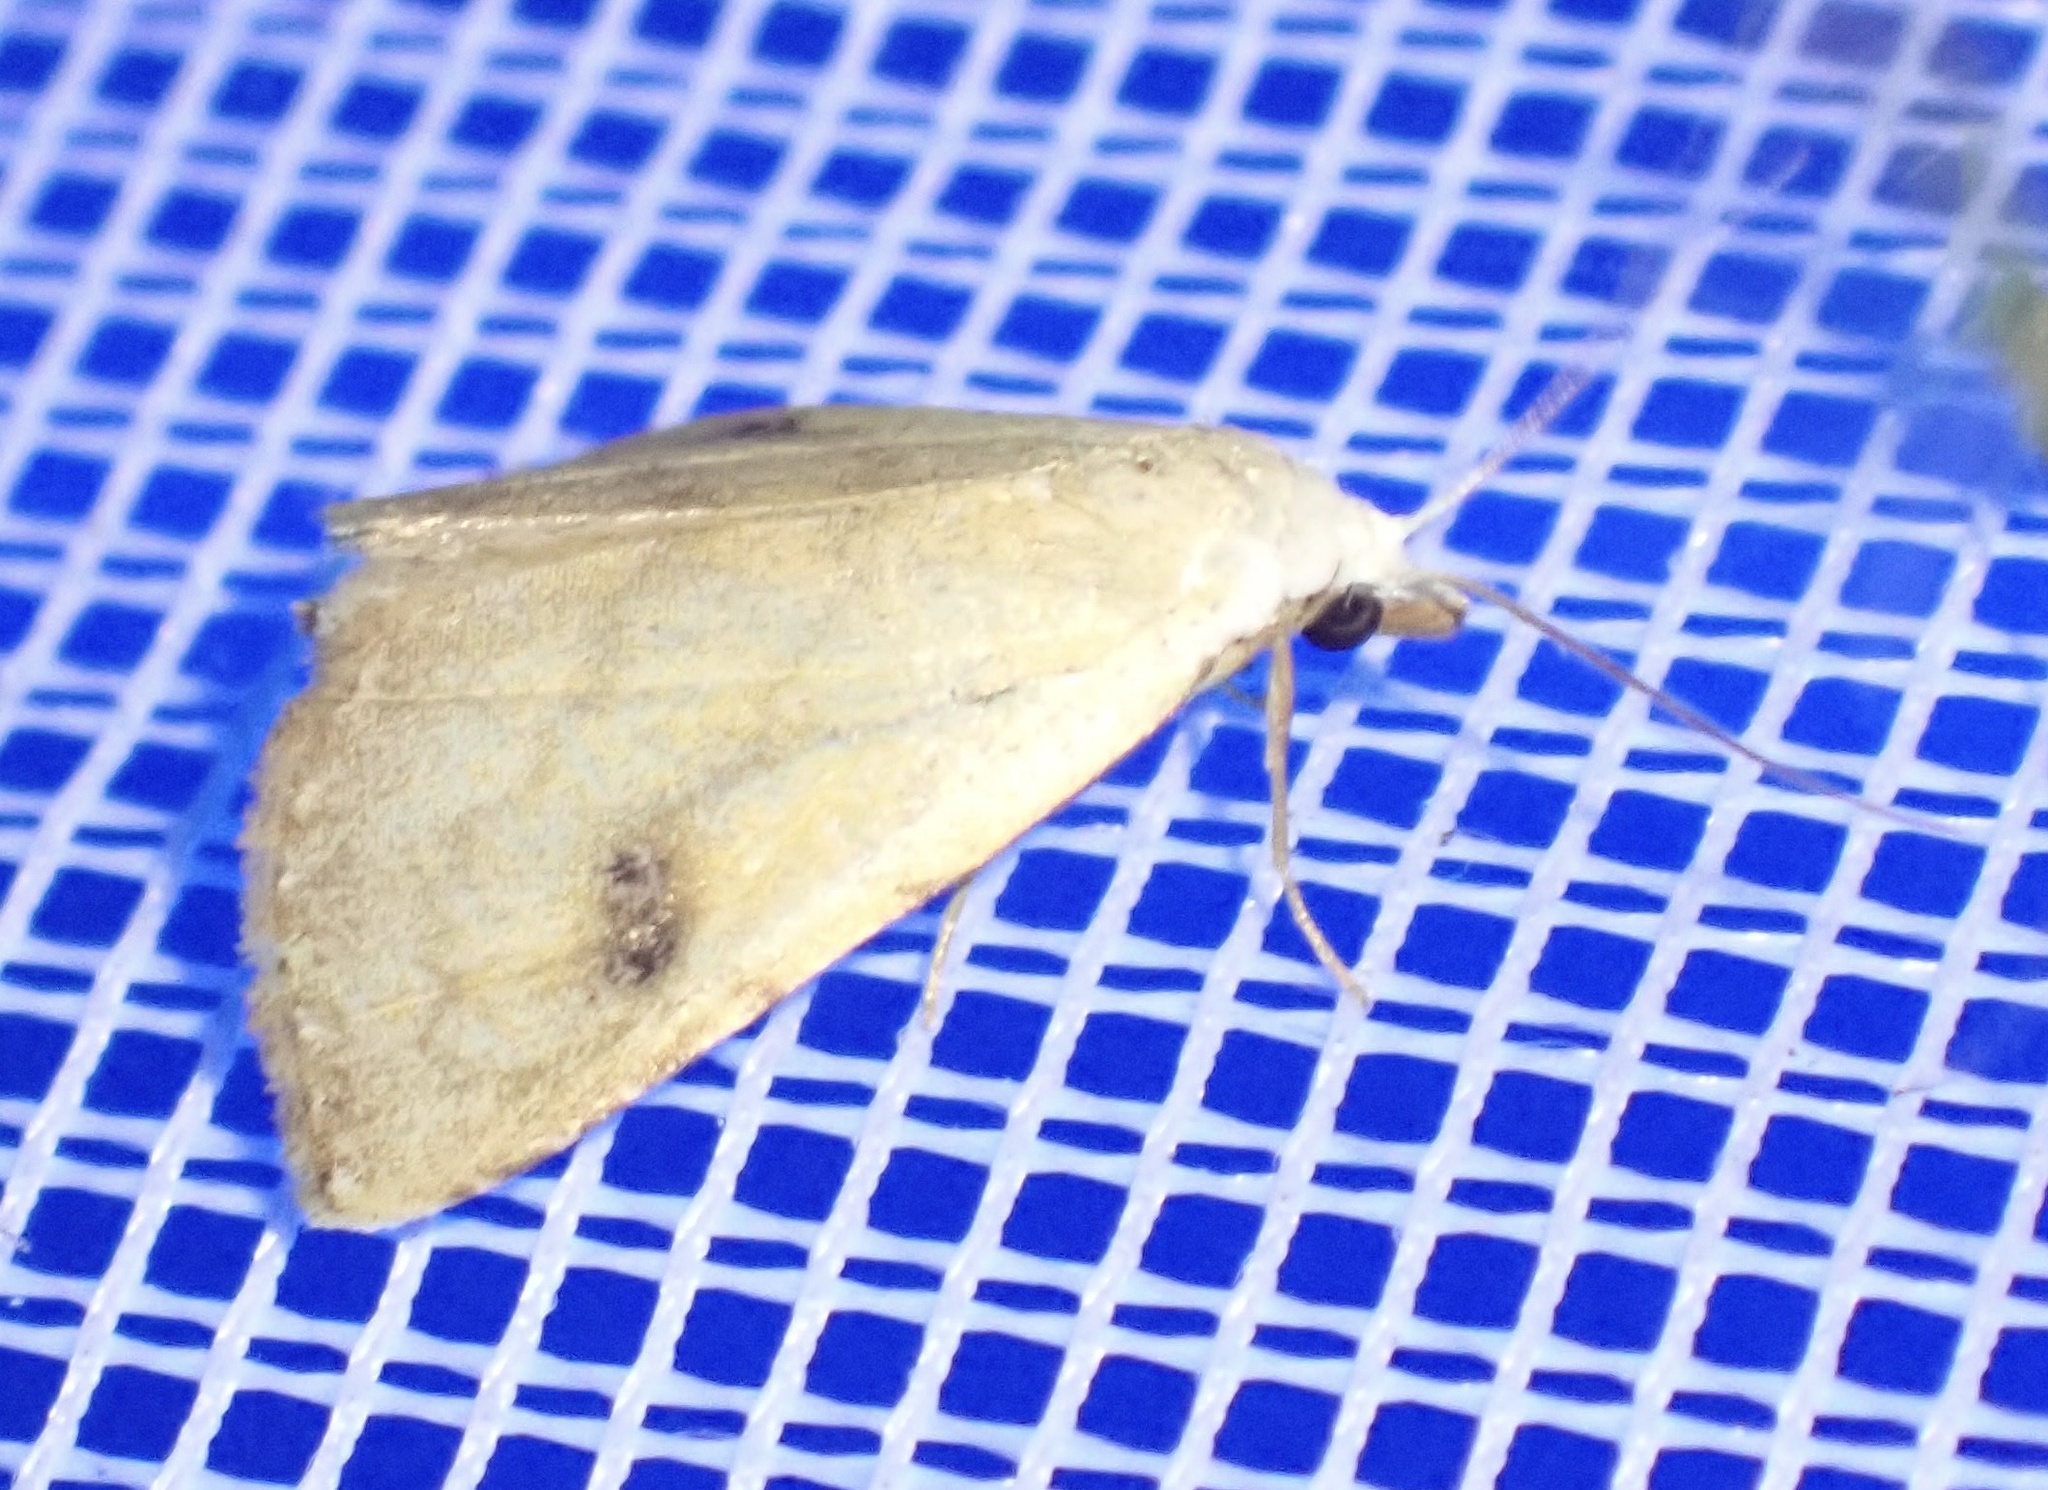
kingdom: Animalia
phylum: Arthropoda
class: Insecta
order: Lepidoptera
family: Erebidae
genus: Rivula
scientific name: Rivula sericealis
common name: Straw dot
